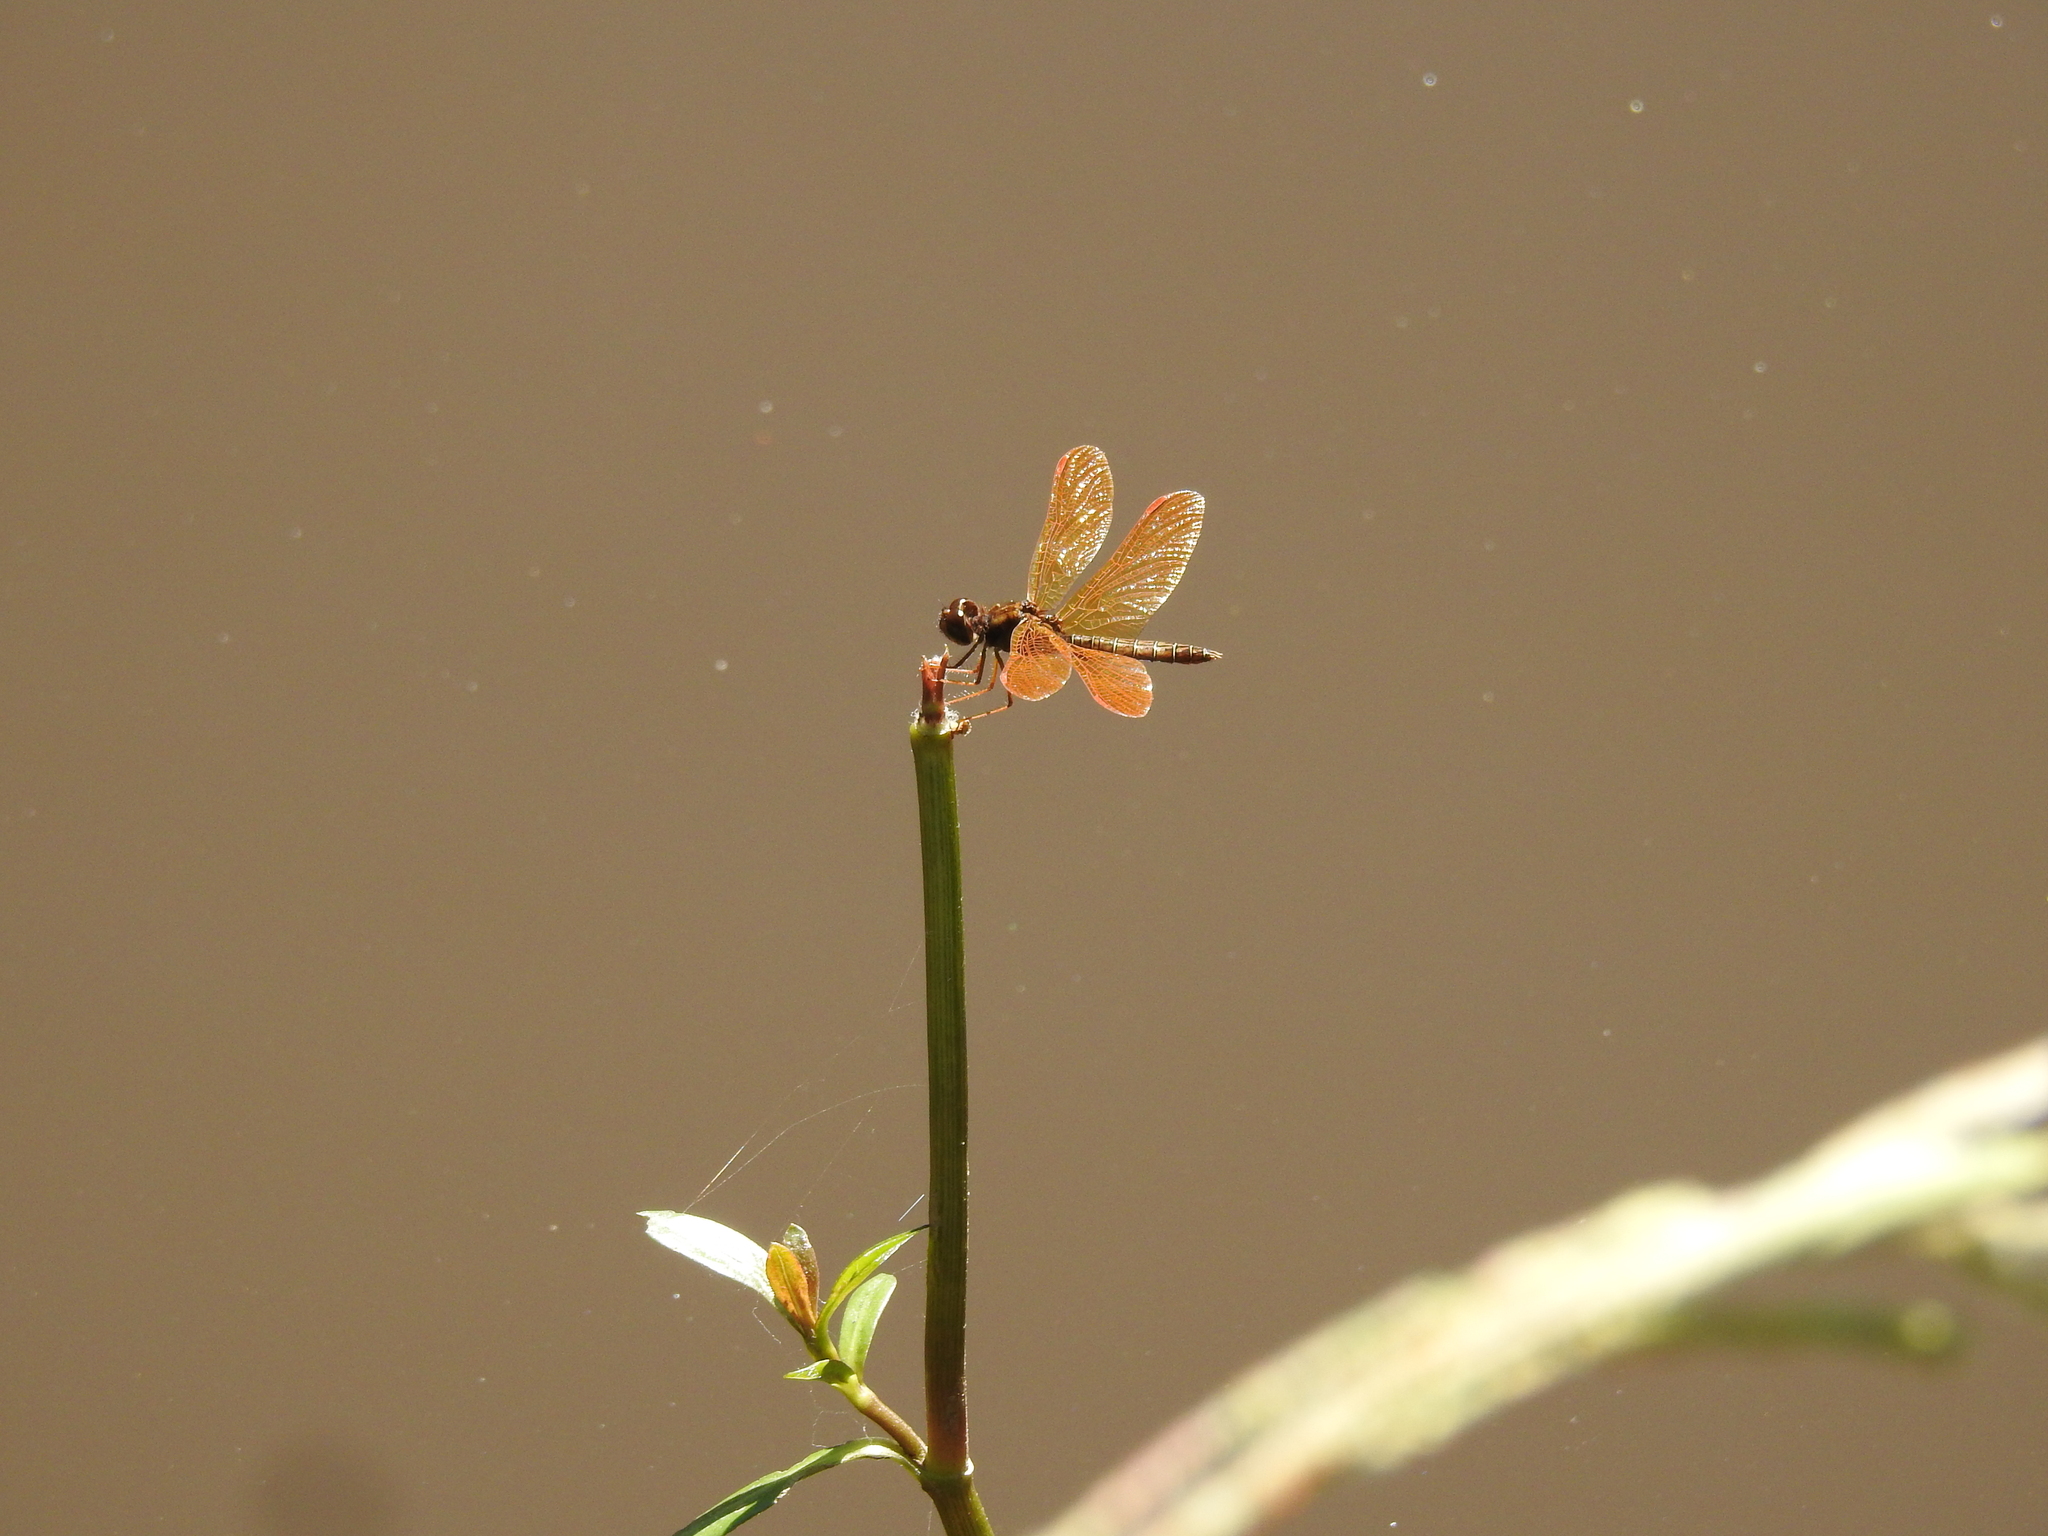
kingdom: Animalia
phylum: Arthropoda
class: Insecta
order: Odonata
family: Libellulidae
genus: Perithemis
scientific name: Perithemis tenera
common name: Eastern amberwing
